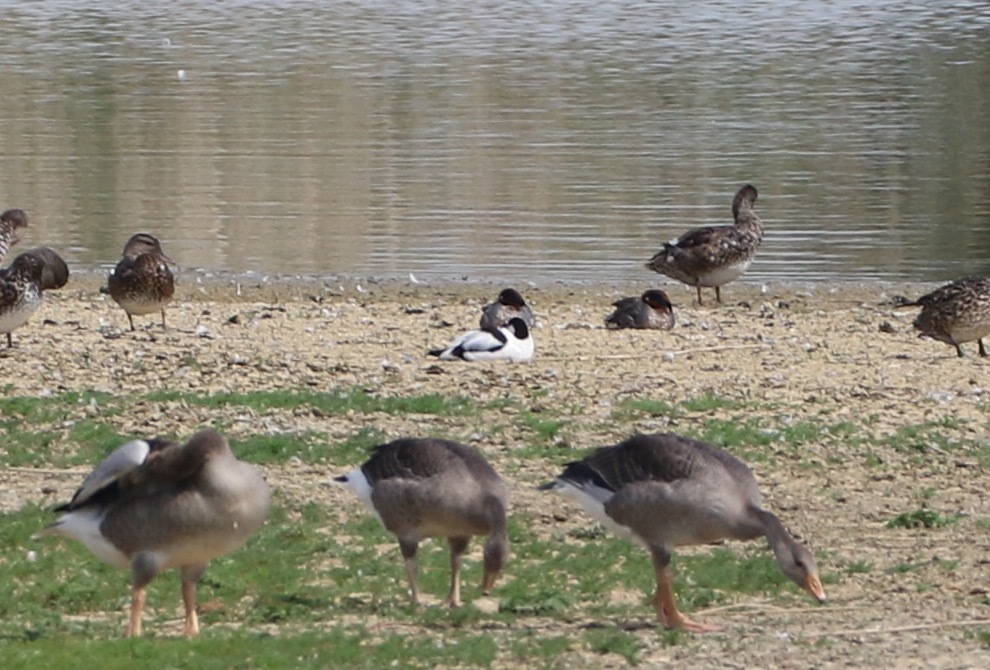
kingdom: Animalia
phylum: Chordata
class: Aves
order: Charadriiformes
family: Recurvirostridae
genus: Recurvirostra
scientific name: Recurvirostra avosetta
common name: Pied avocet
